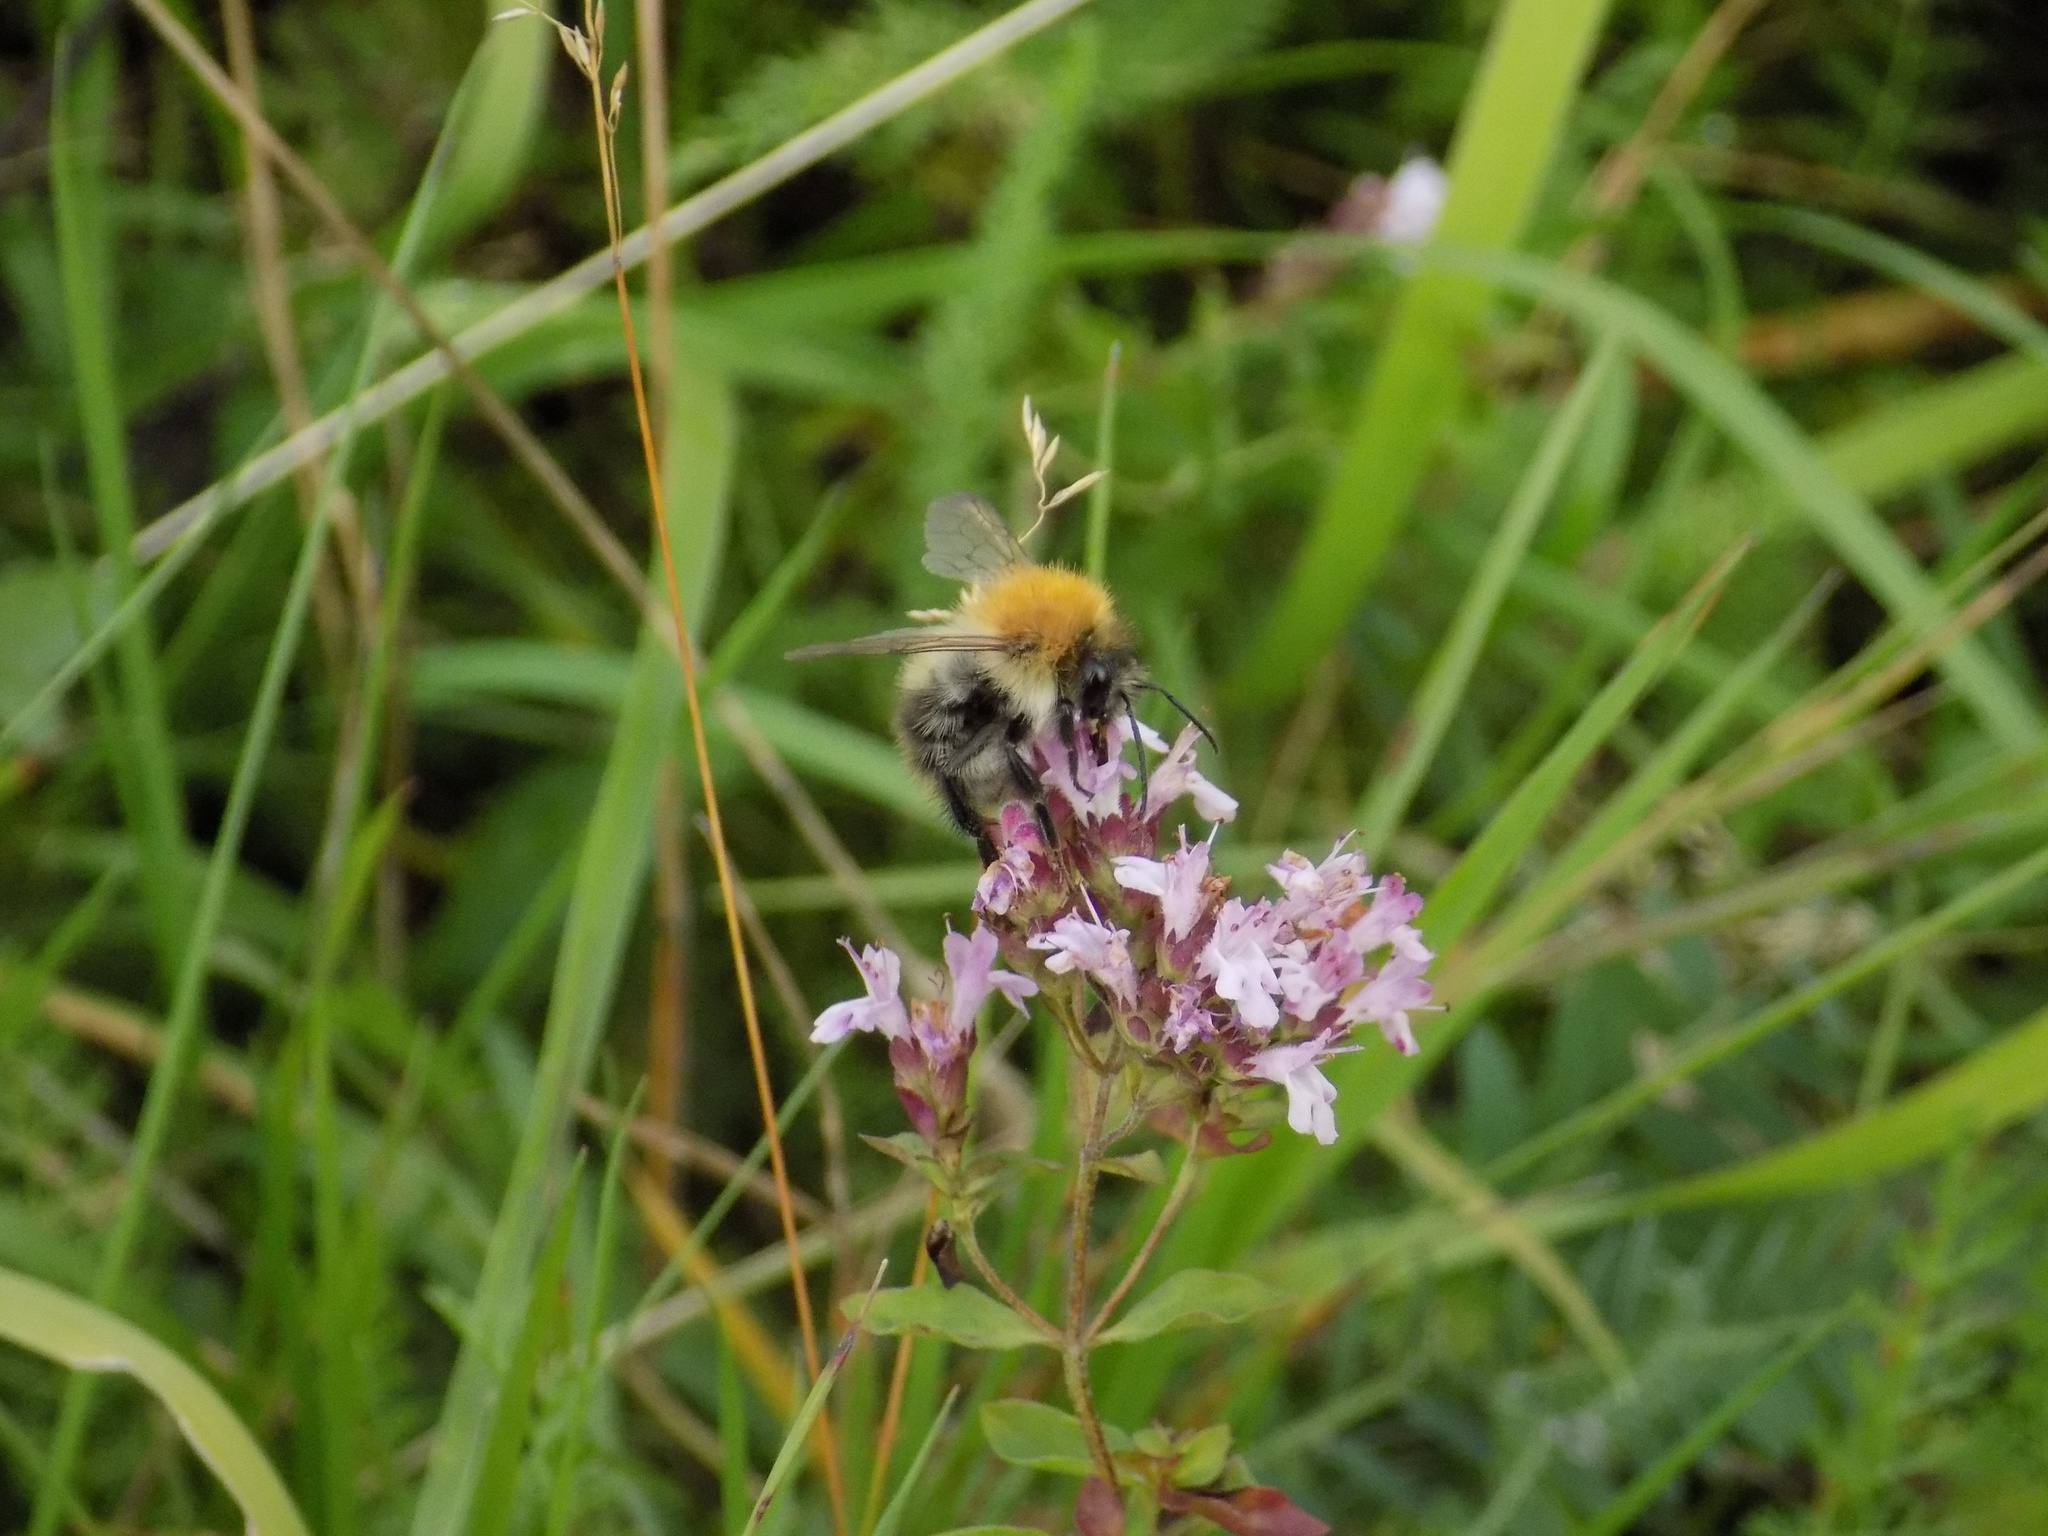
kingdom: Animalia
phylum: Arthropoda
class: Insecta
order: Hymenoptera
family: Apidae
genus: Bombus
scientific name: Bombus pascuorum
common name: Common carder bee
